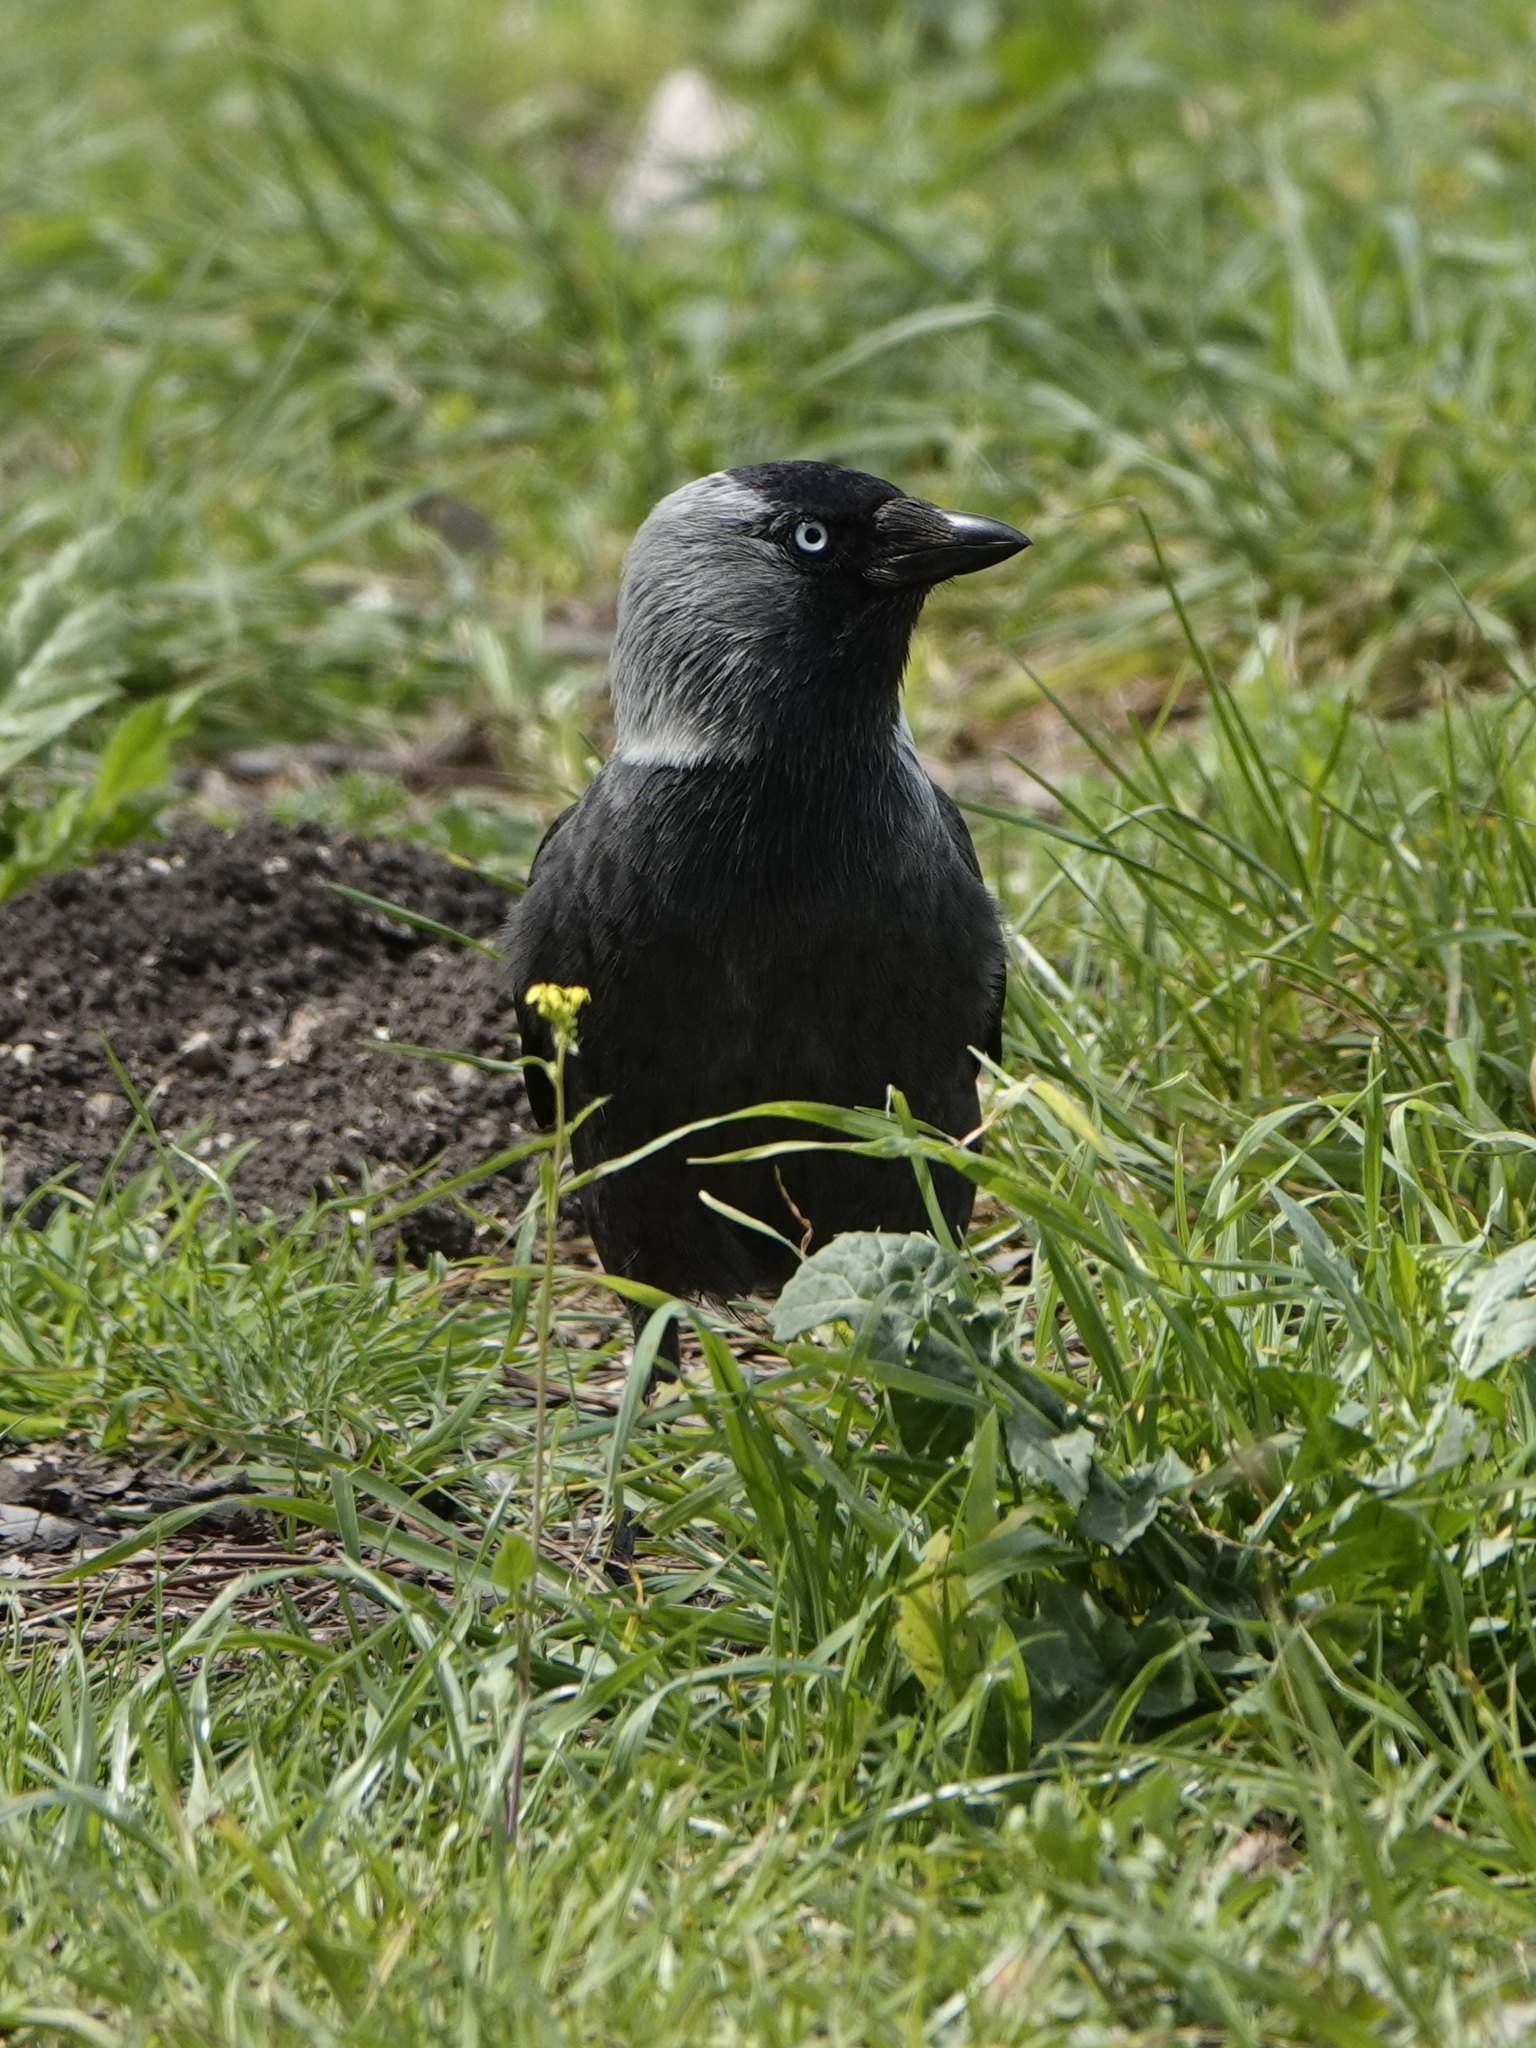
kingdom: Animalia
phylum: Chordata
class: Aves
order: Passeriformes
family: Corvidae
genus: Coloeus
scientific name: Coloeus monedula
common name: Western jackdaw
